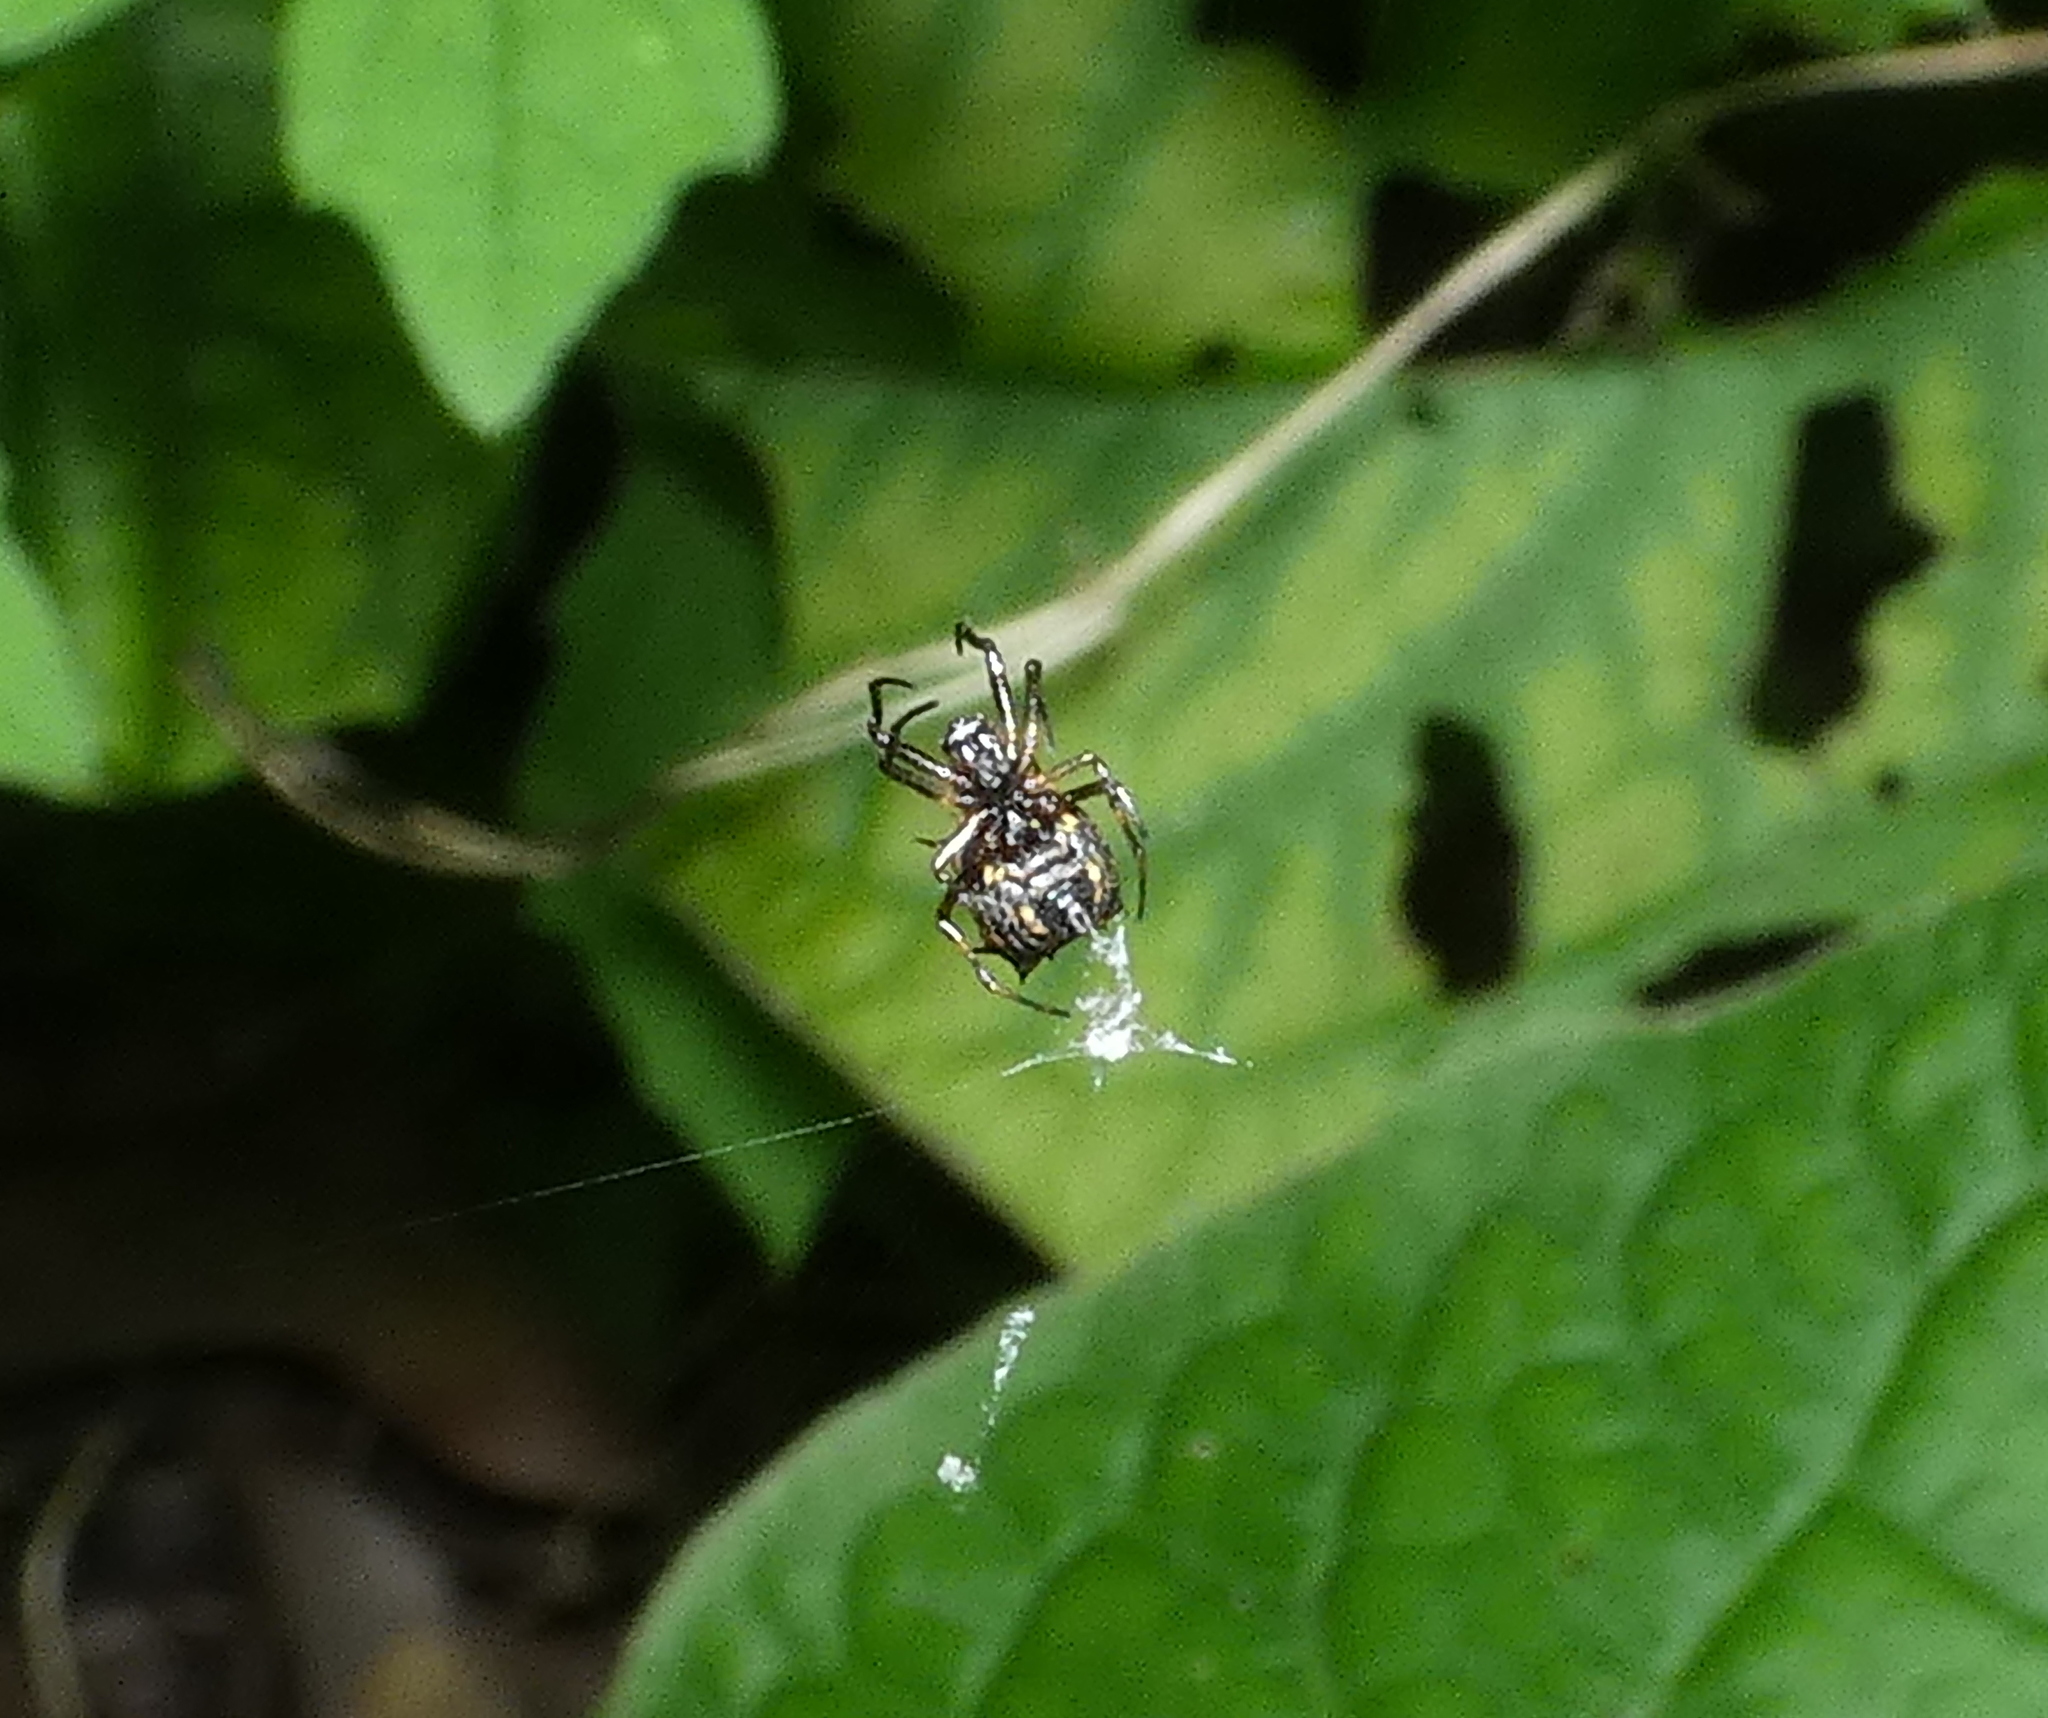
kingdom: Animalia
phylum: Arthropoda
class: Arachnida
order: Araneae
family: Araneidae
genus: Micrathena
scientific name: Micrathena picta
